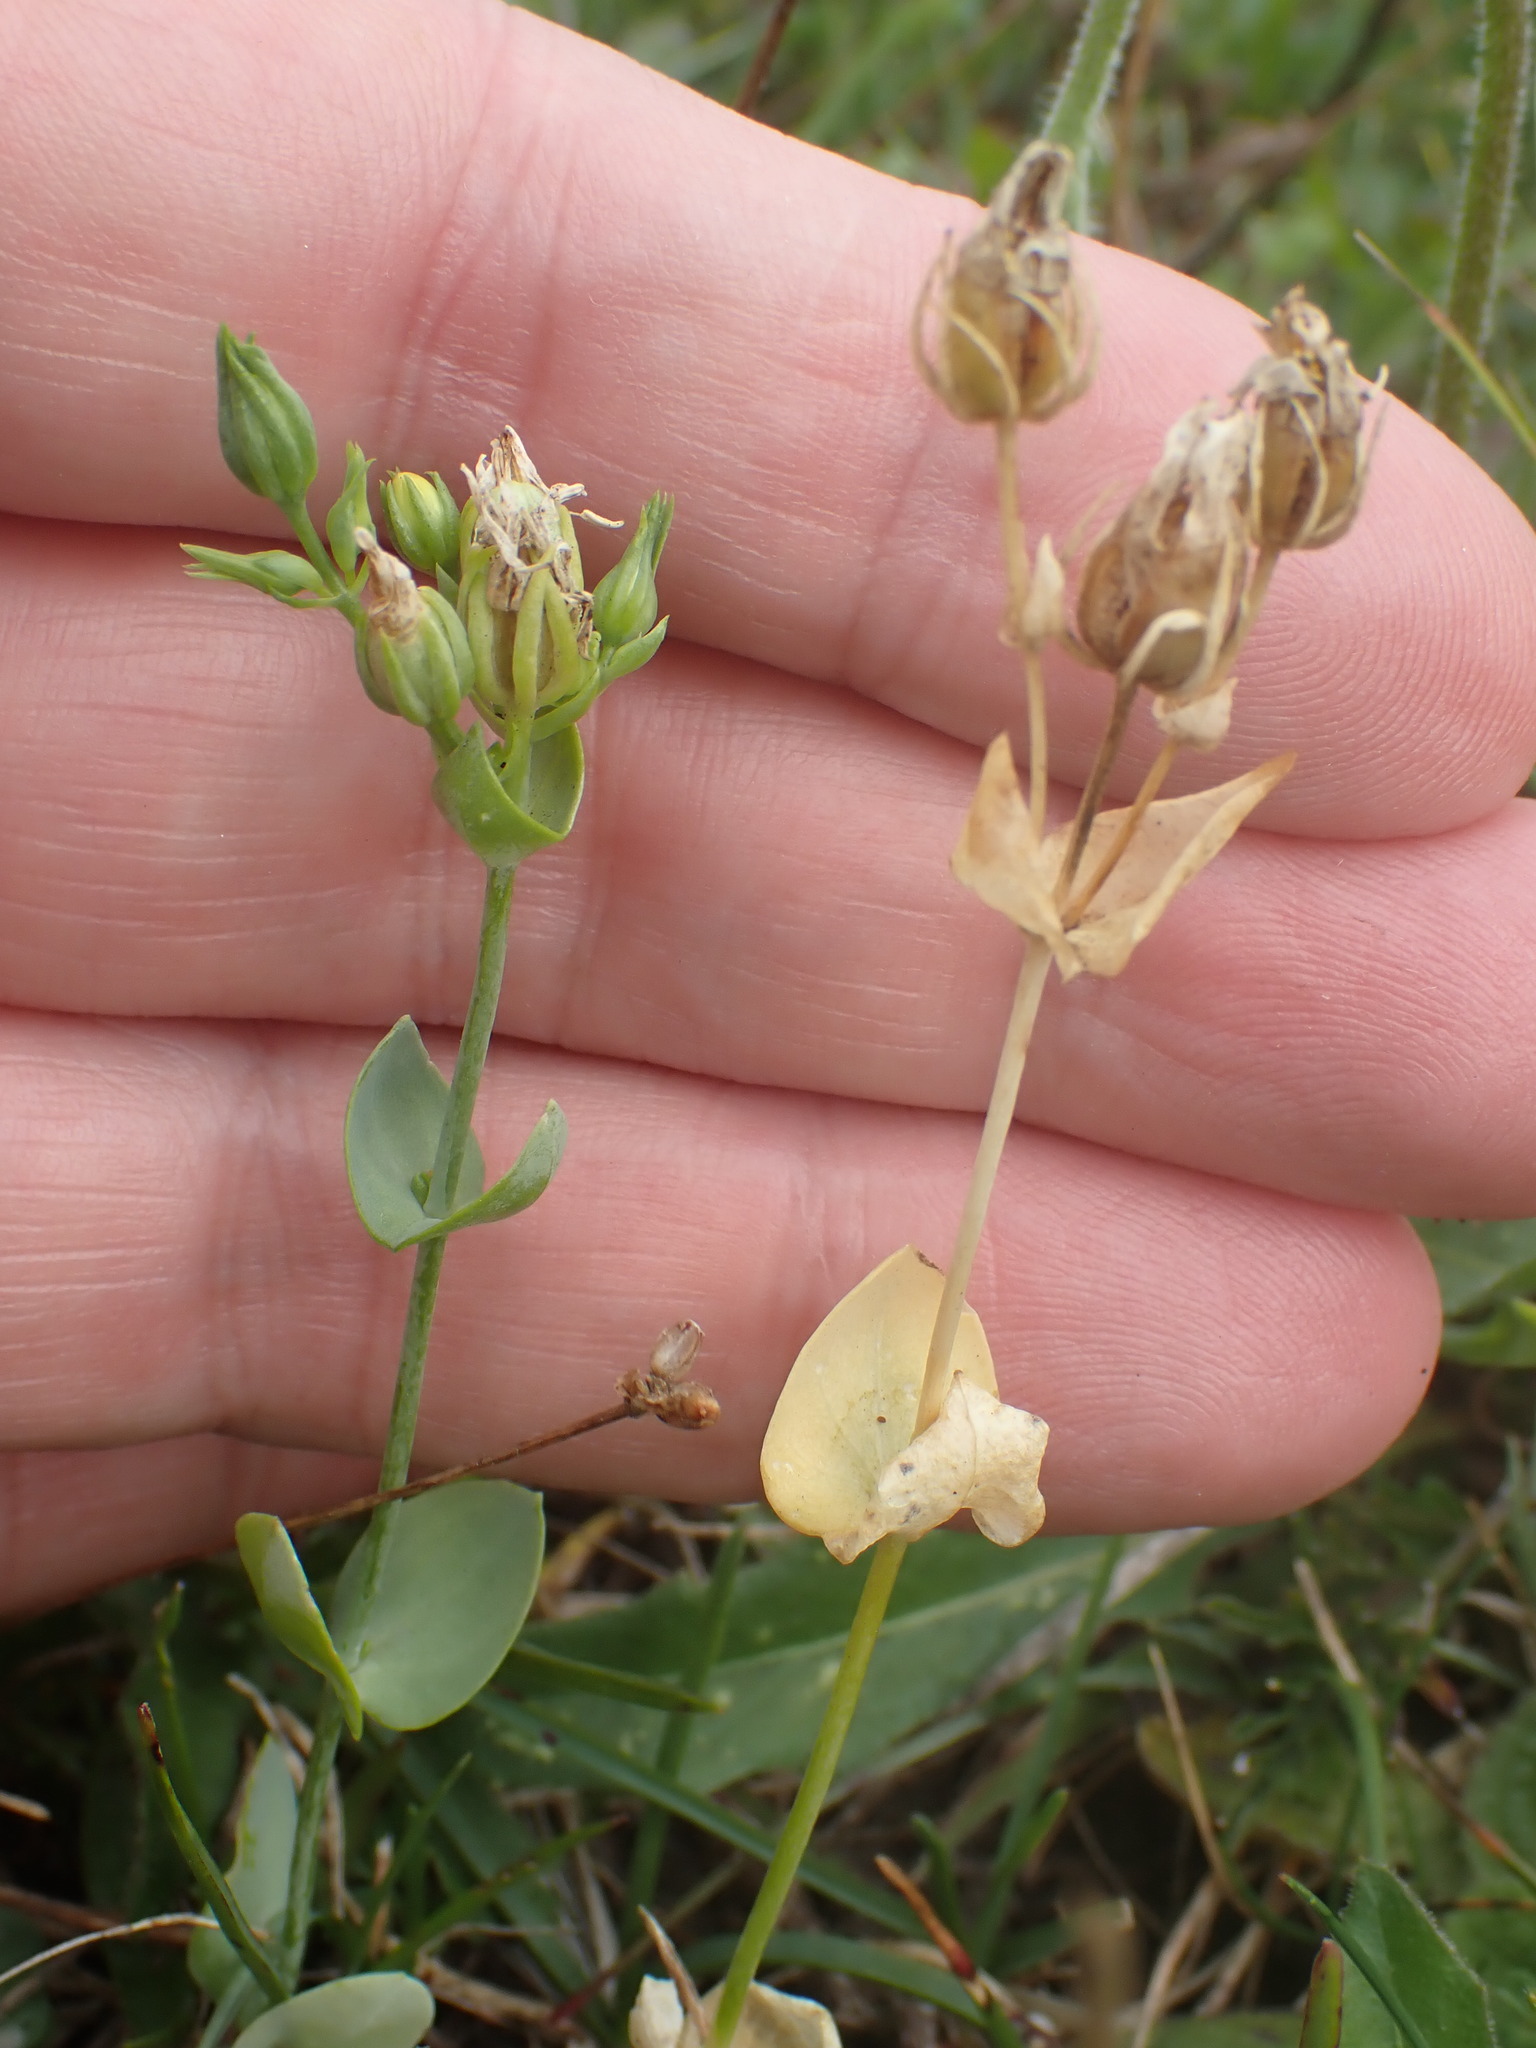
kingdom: Plantae
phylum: Tracheophyta
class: Magnoliopsida
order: Gentianales
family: Gentianaceae
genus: Blackstonia
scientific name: Blackstonia perfoliata
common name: Yellow-wort
